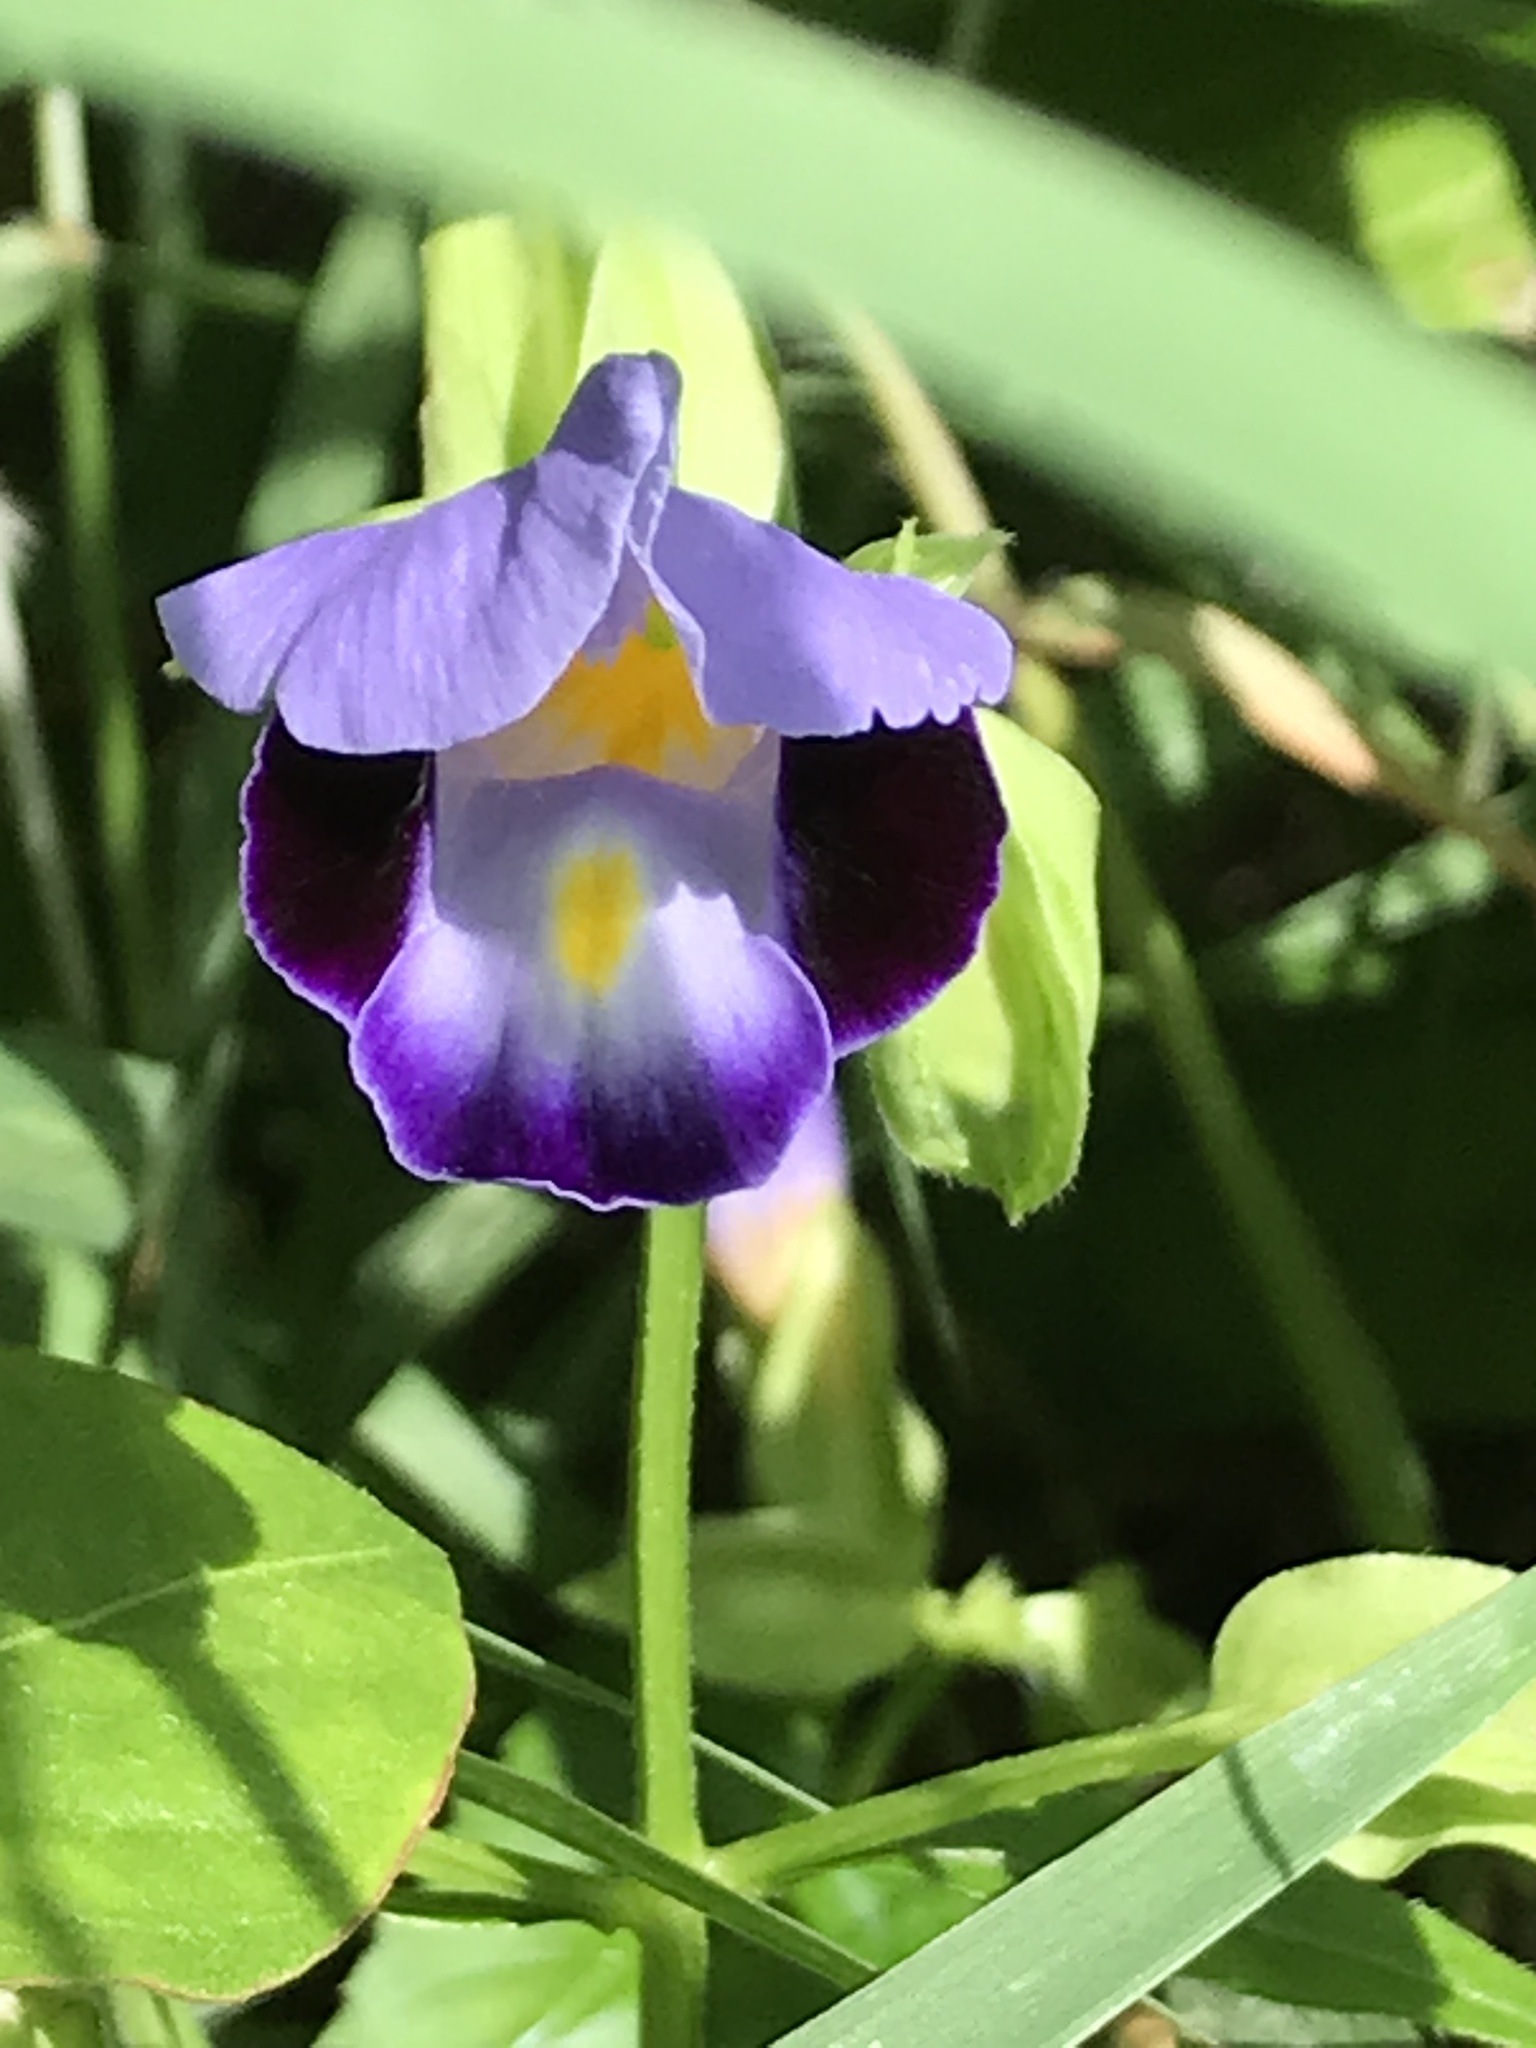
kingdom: Plantae
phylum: Tracheophyta
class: Magnoliopsida
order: Lamiales
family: Linderniaceae
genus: Torenia
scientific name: Torenia fournieri
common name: Bluewings
